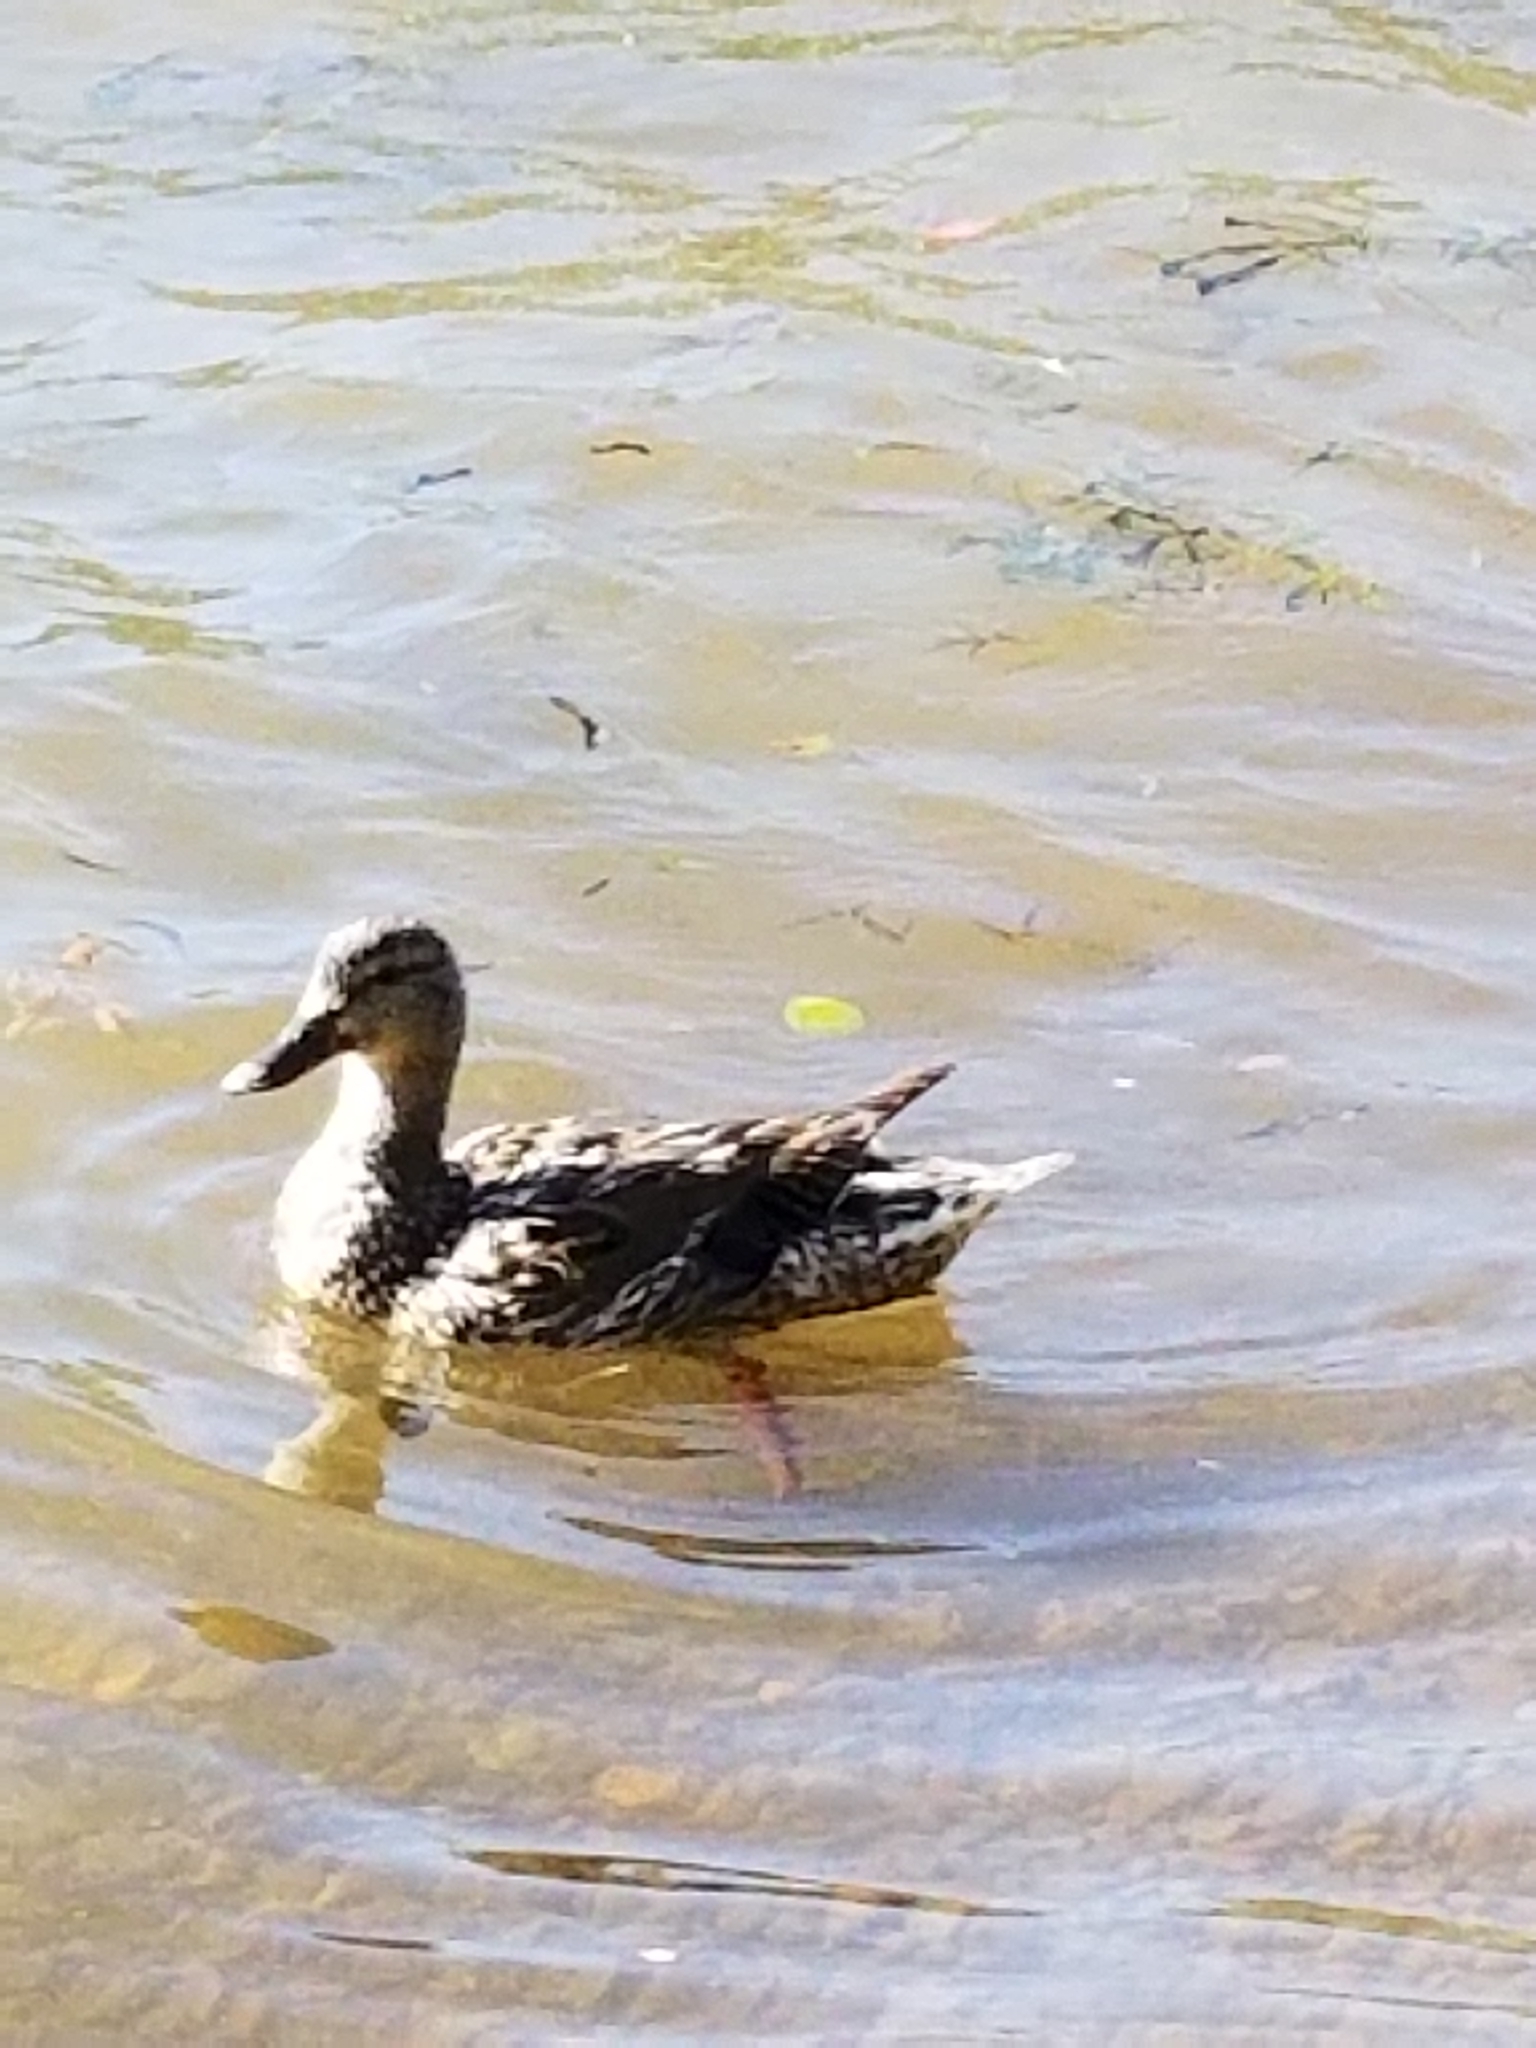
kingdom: Animalia
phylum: Chordata
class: Aves
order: Anseriformes
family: Anatidae
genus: Anas
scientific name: Anas platyrhynchos
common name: Mallard
